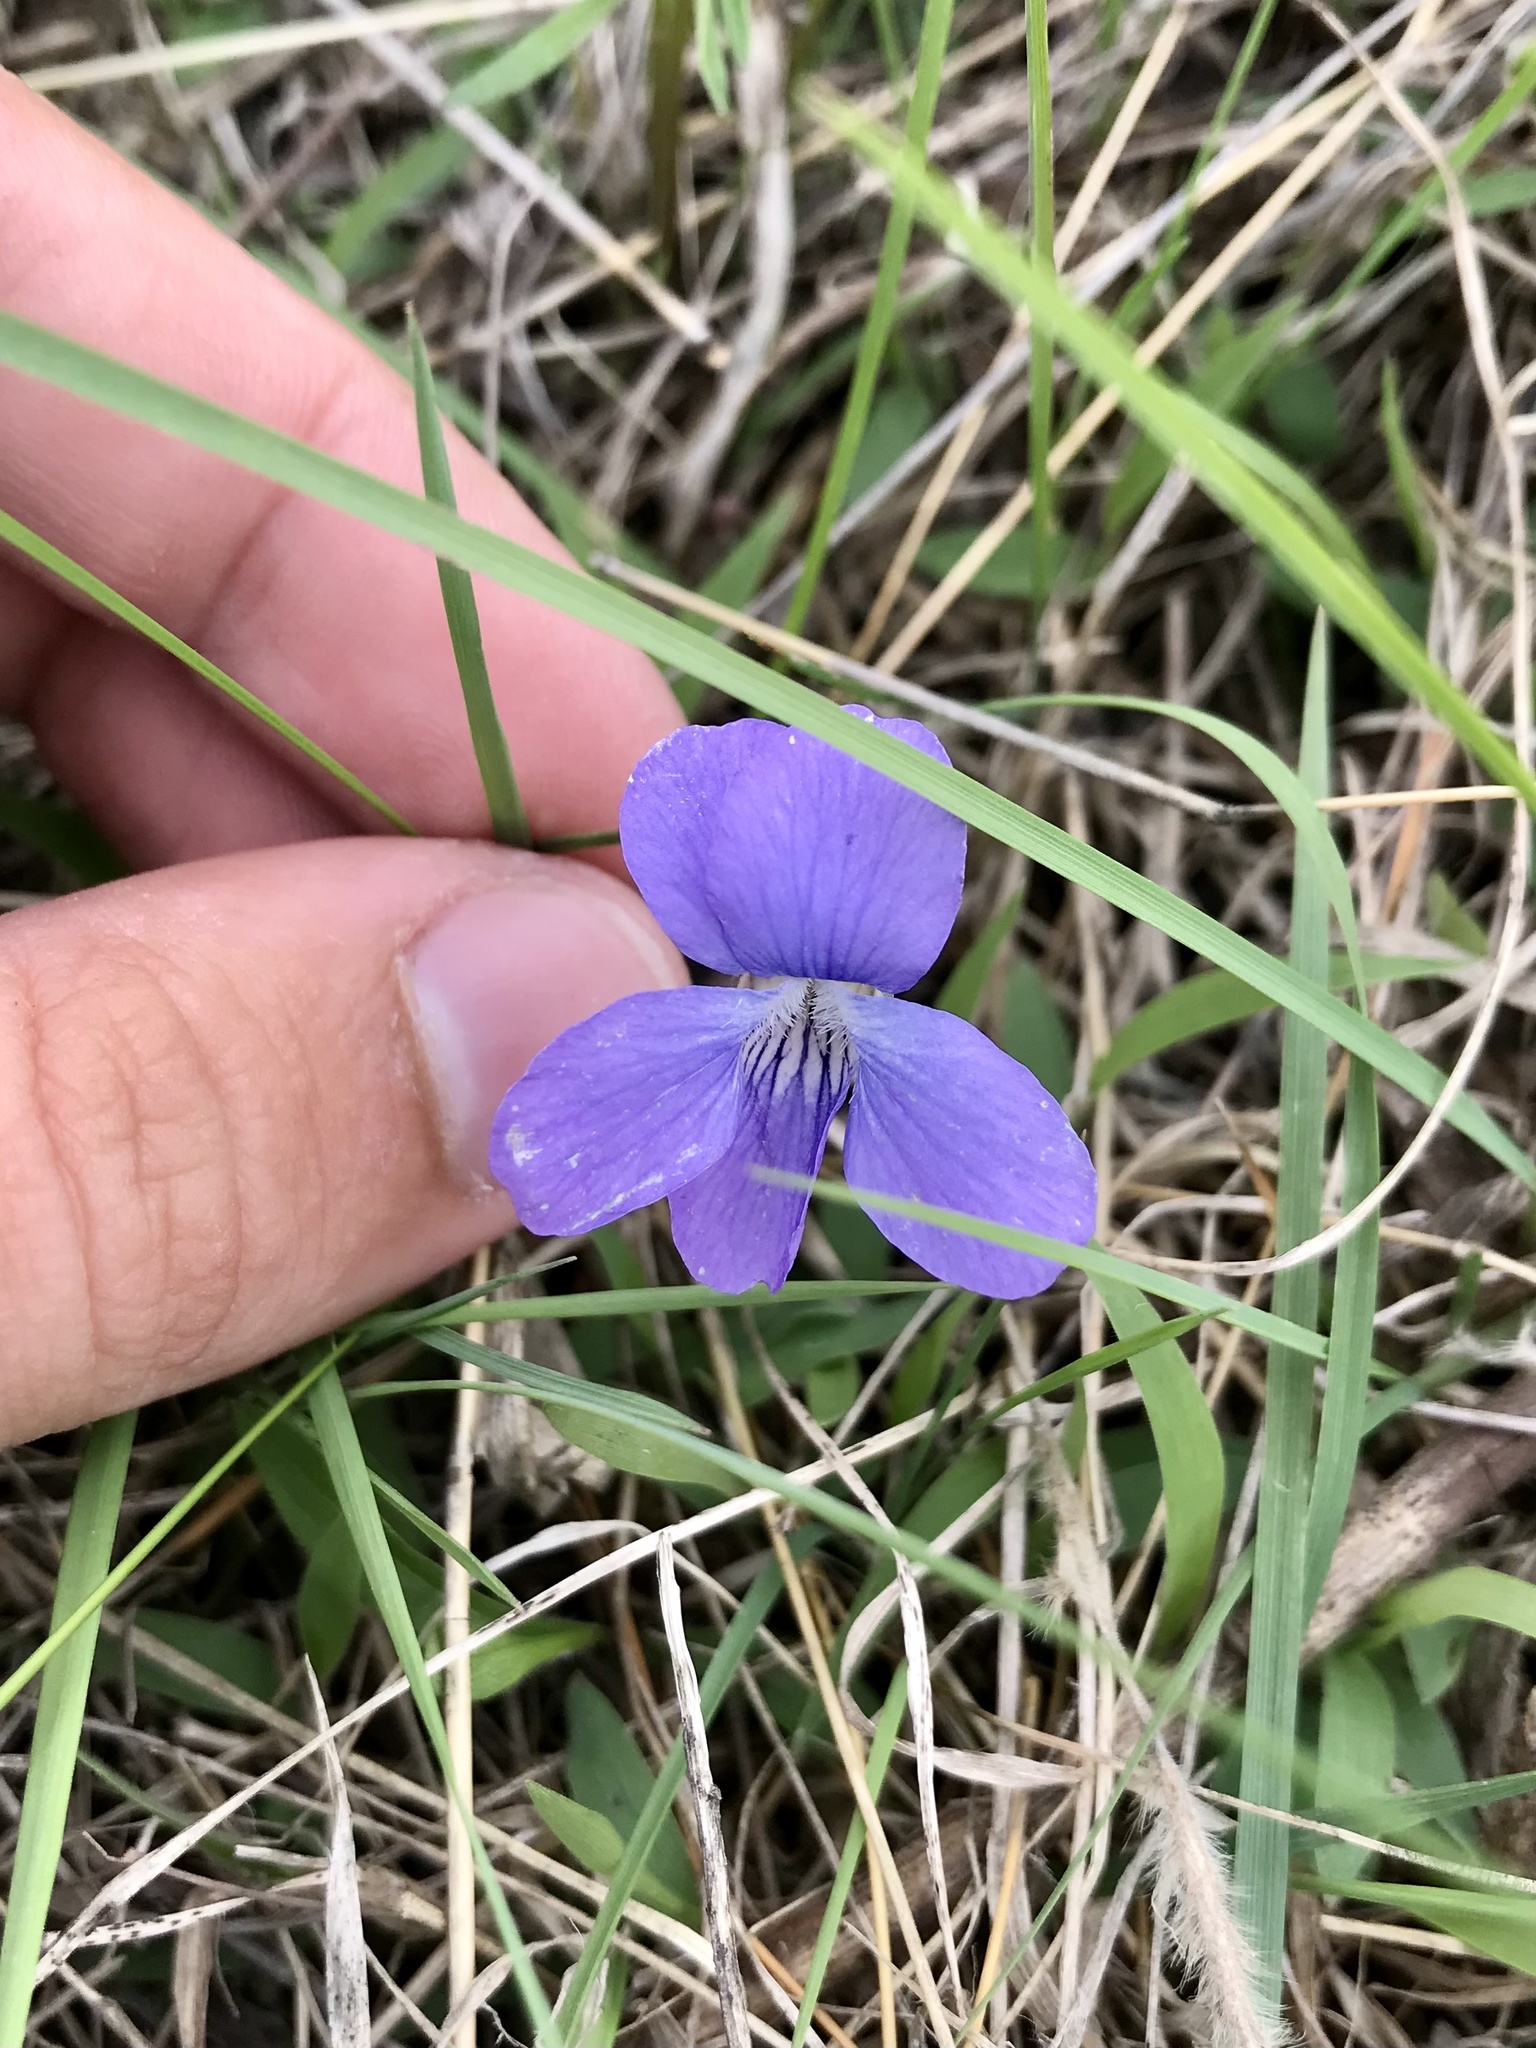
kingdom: Plantae
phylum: Tracheophyta
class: Magnoliopsida
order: Malpighiales
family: Violaceae
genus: Viola
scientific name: Viola pedatifida
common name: Prairie violet
